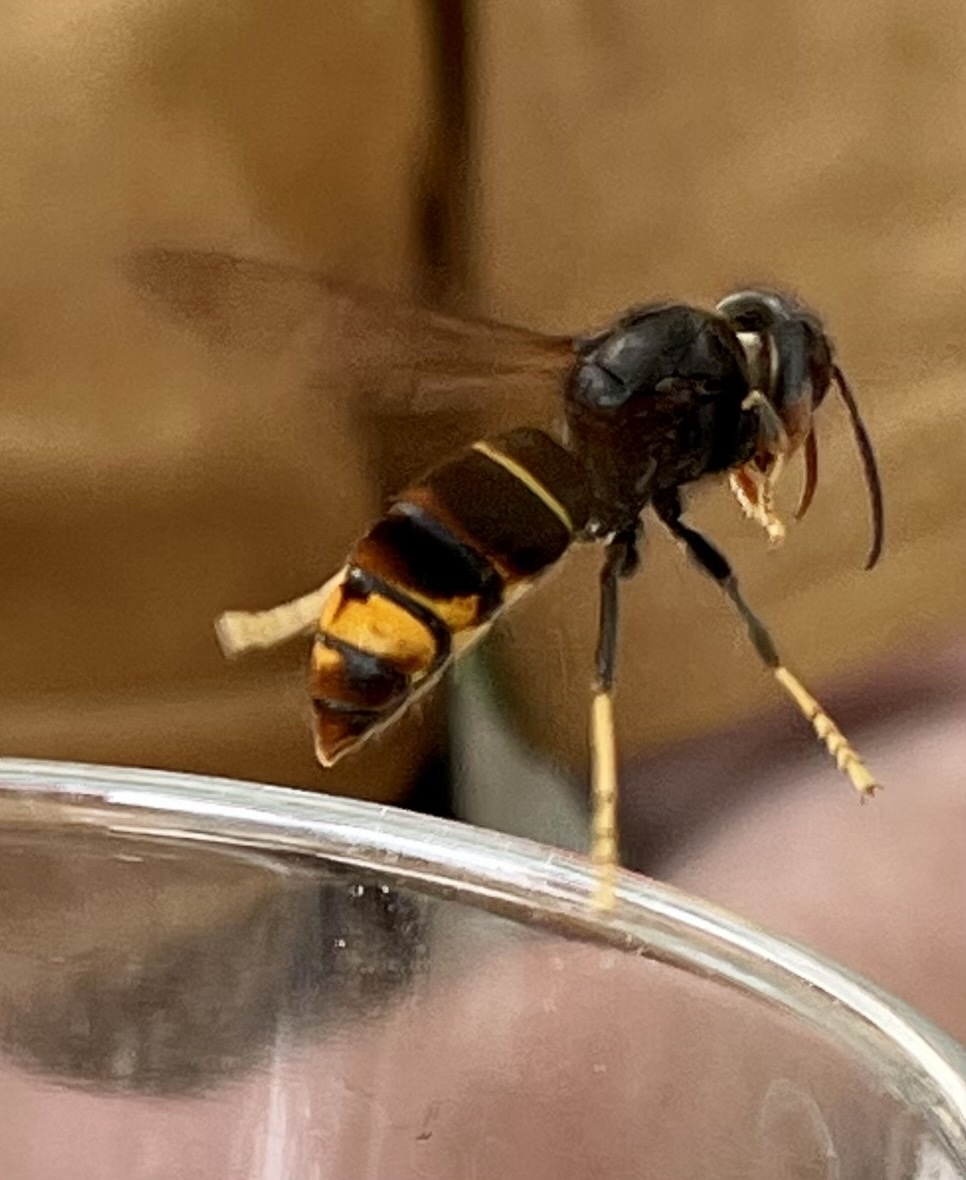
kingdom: Animalia
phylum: Arthropoda
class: Insecta
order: Hymenoptera
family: Vespidae
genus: Vespa
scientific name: Vespa velutina
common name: Asian hornet
